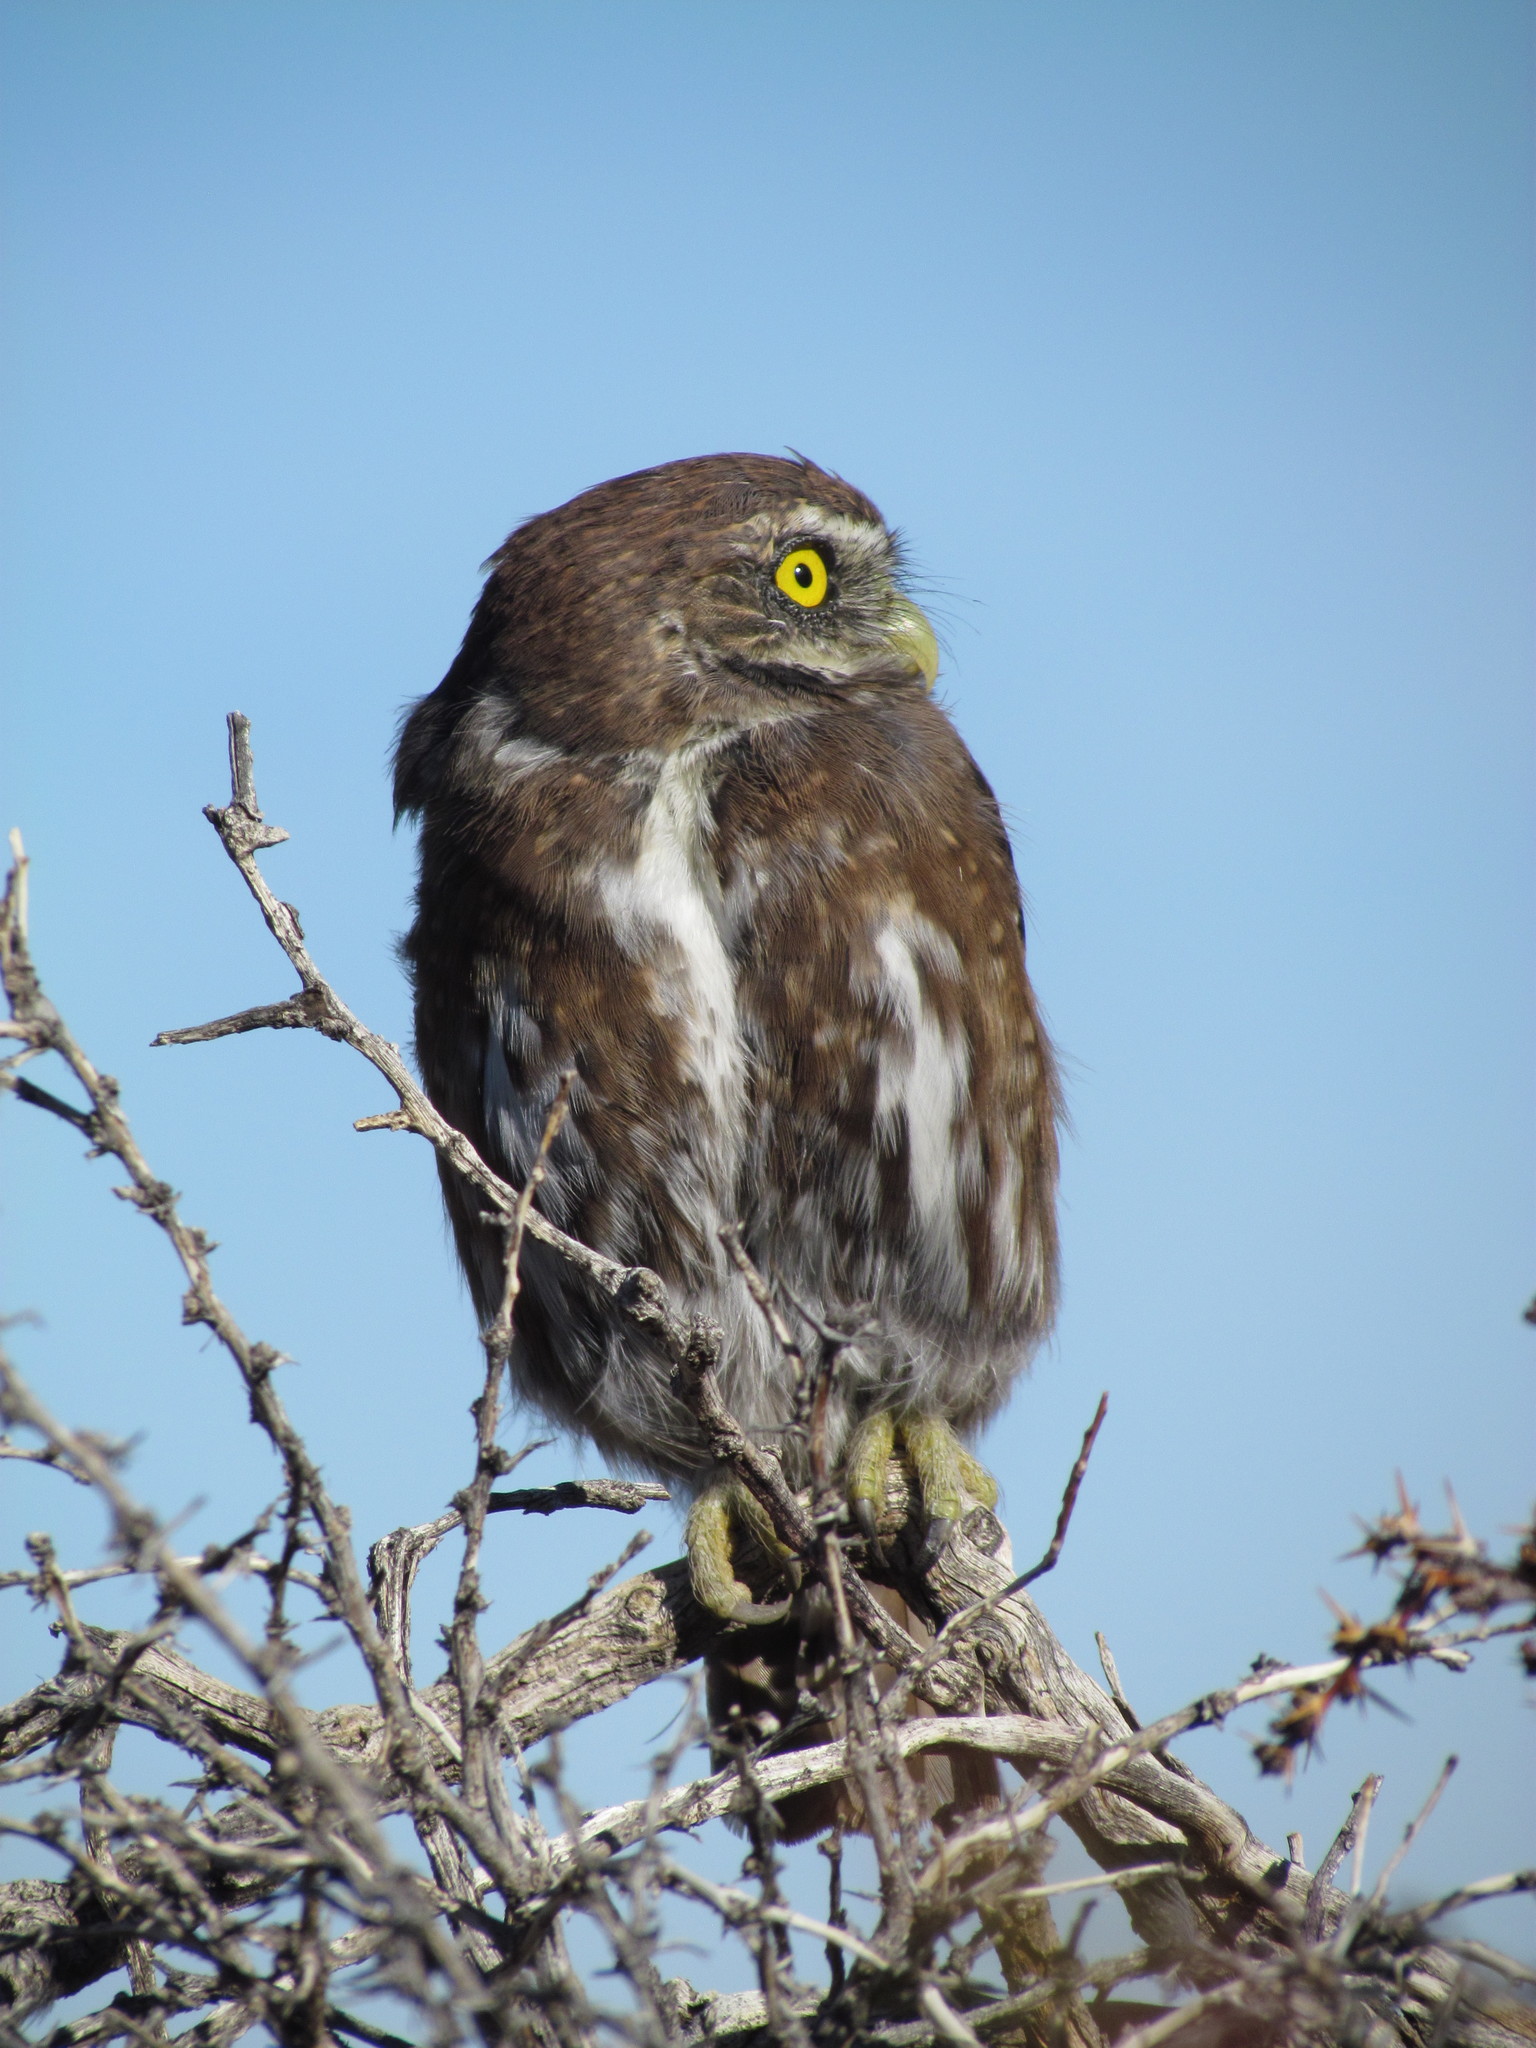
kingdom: Animalia
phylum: Chordata
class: Aves
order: Strigiformes
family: Strigidae
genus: Glaucidium
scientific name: Glaucidium nana
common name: Austral pygmy-owl
